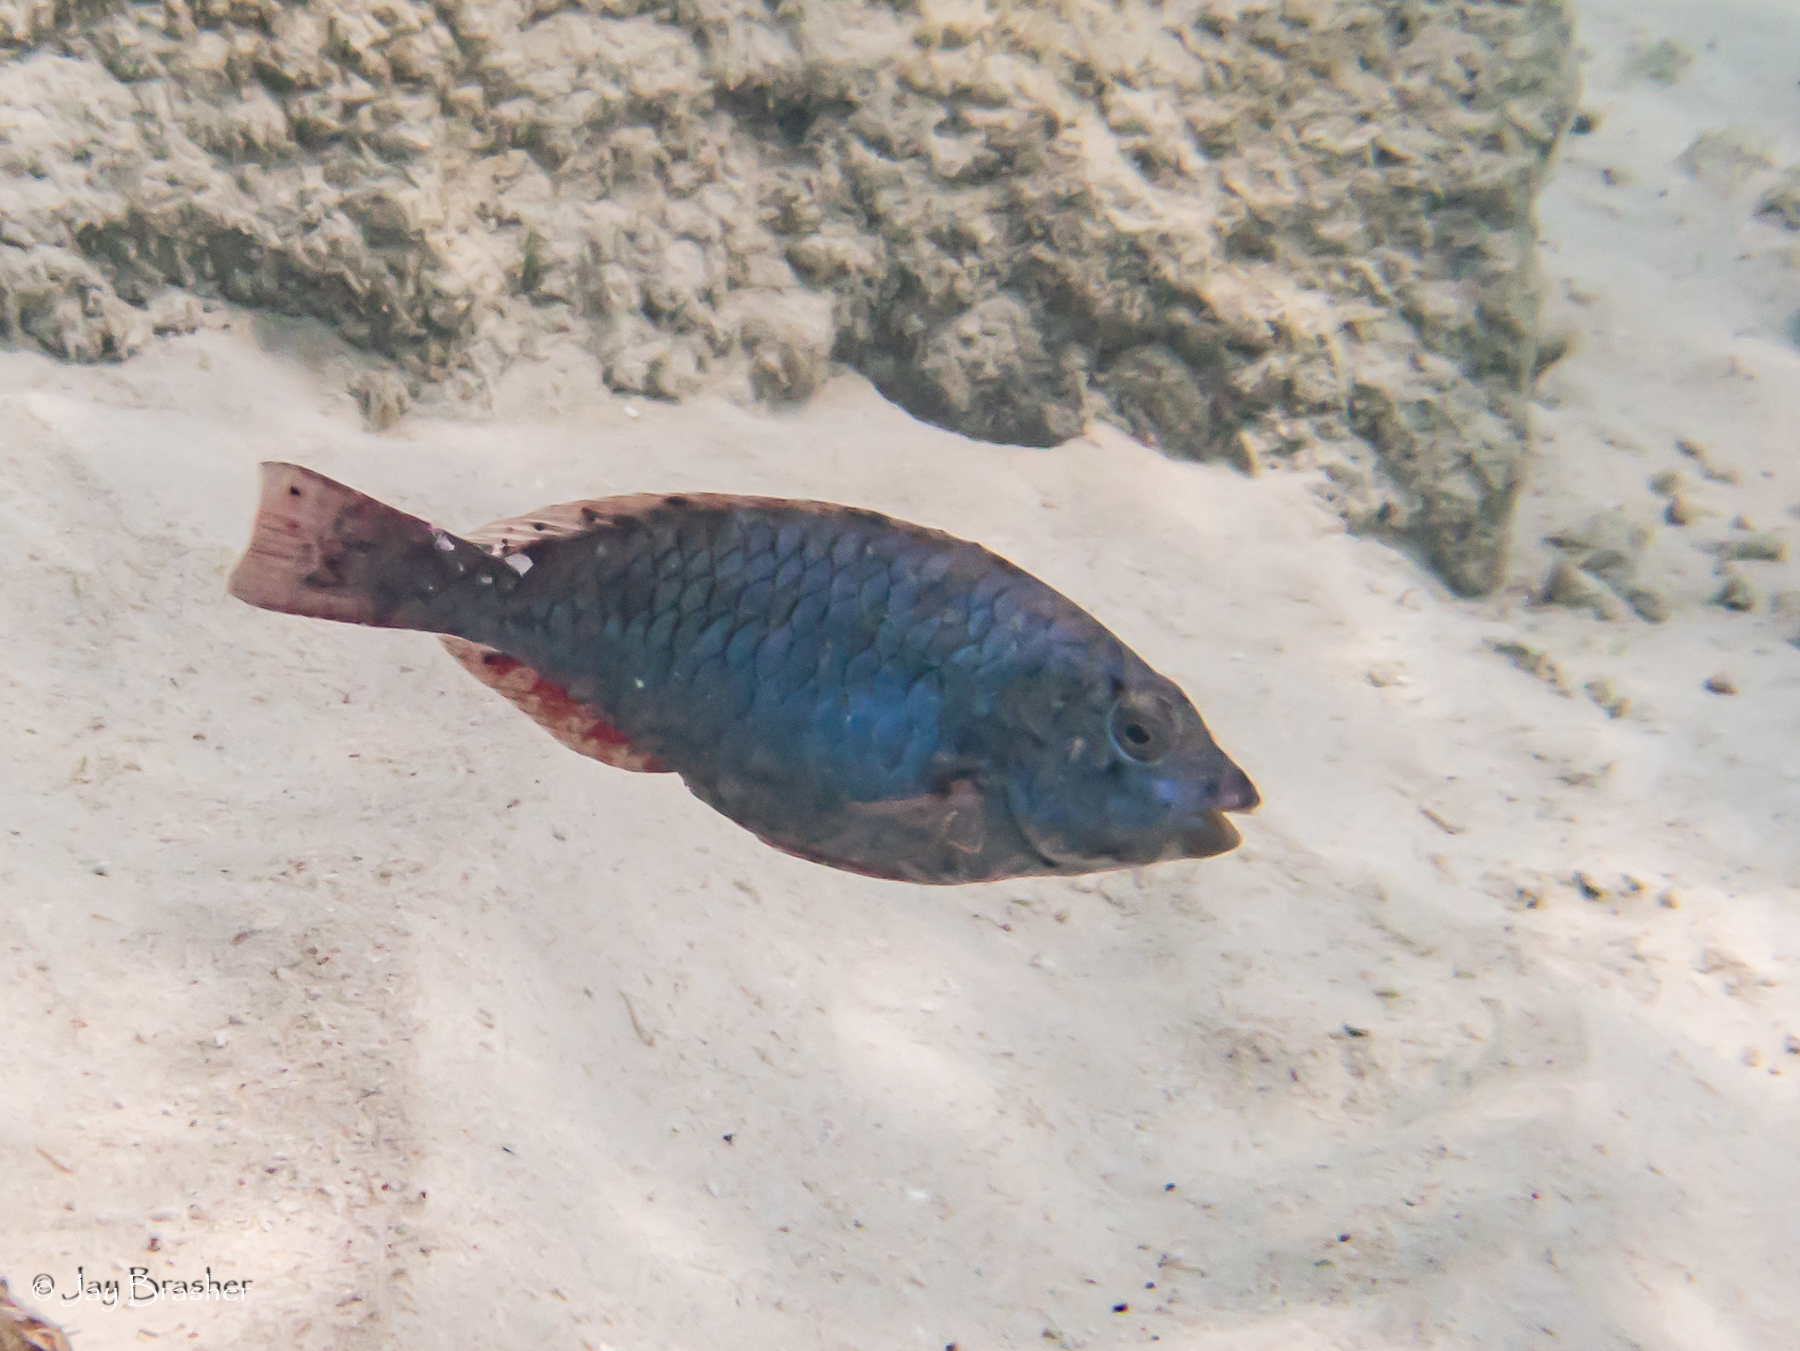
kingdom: Animalia
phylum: Chordata
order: Perciformes
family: Scaridae
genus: Sparisoma
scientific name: Sparisoma aurofrenatum
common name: Redband parrotfish
